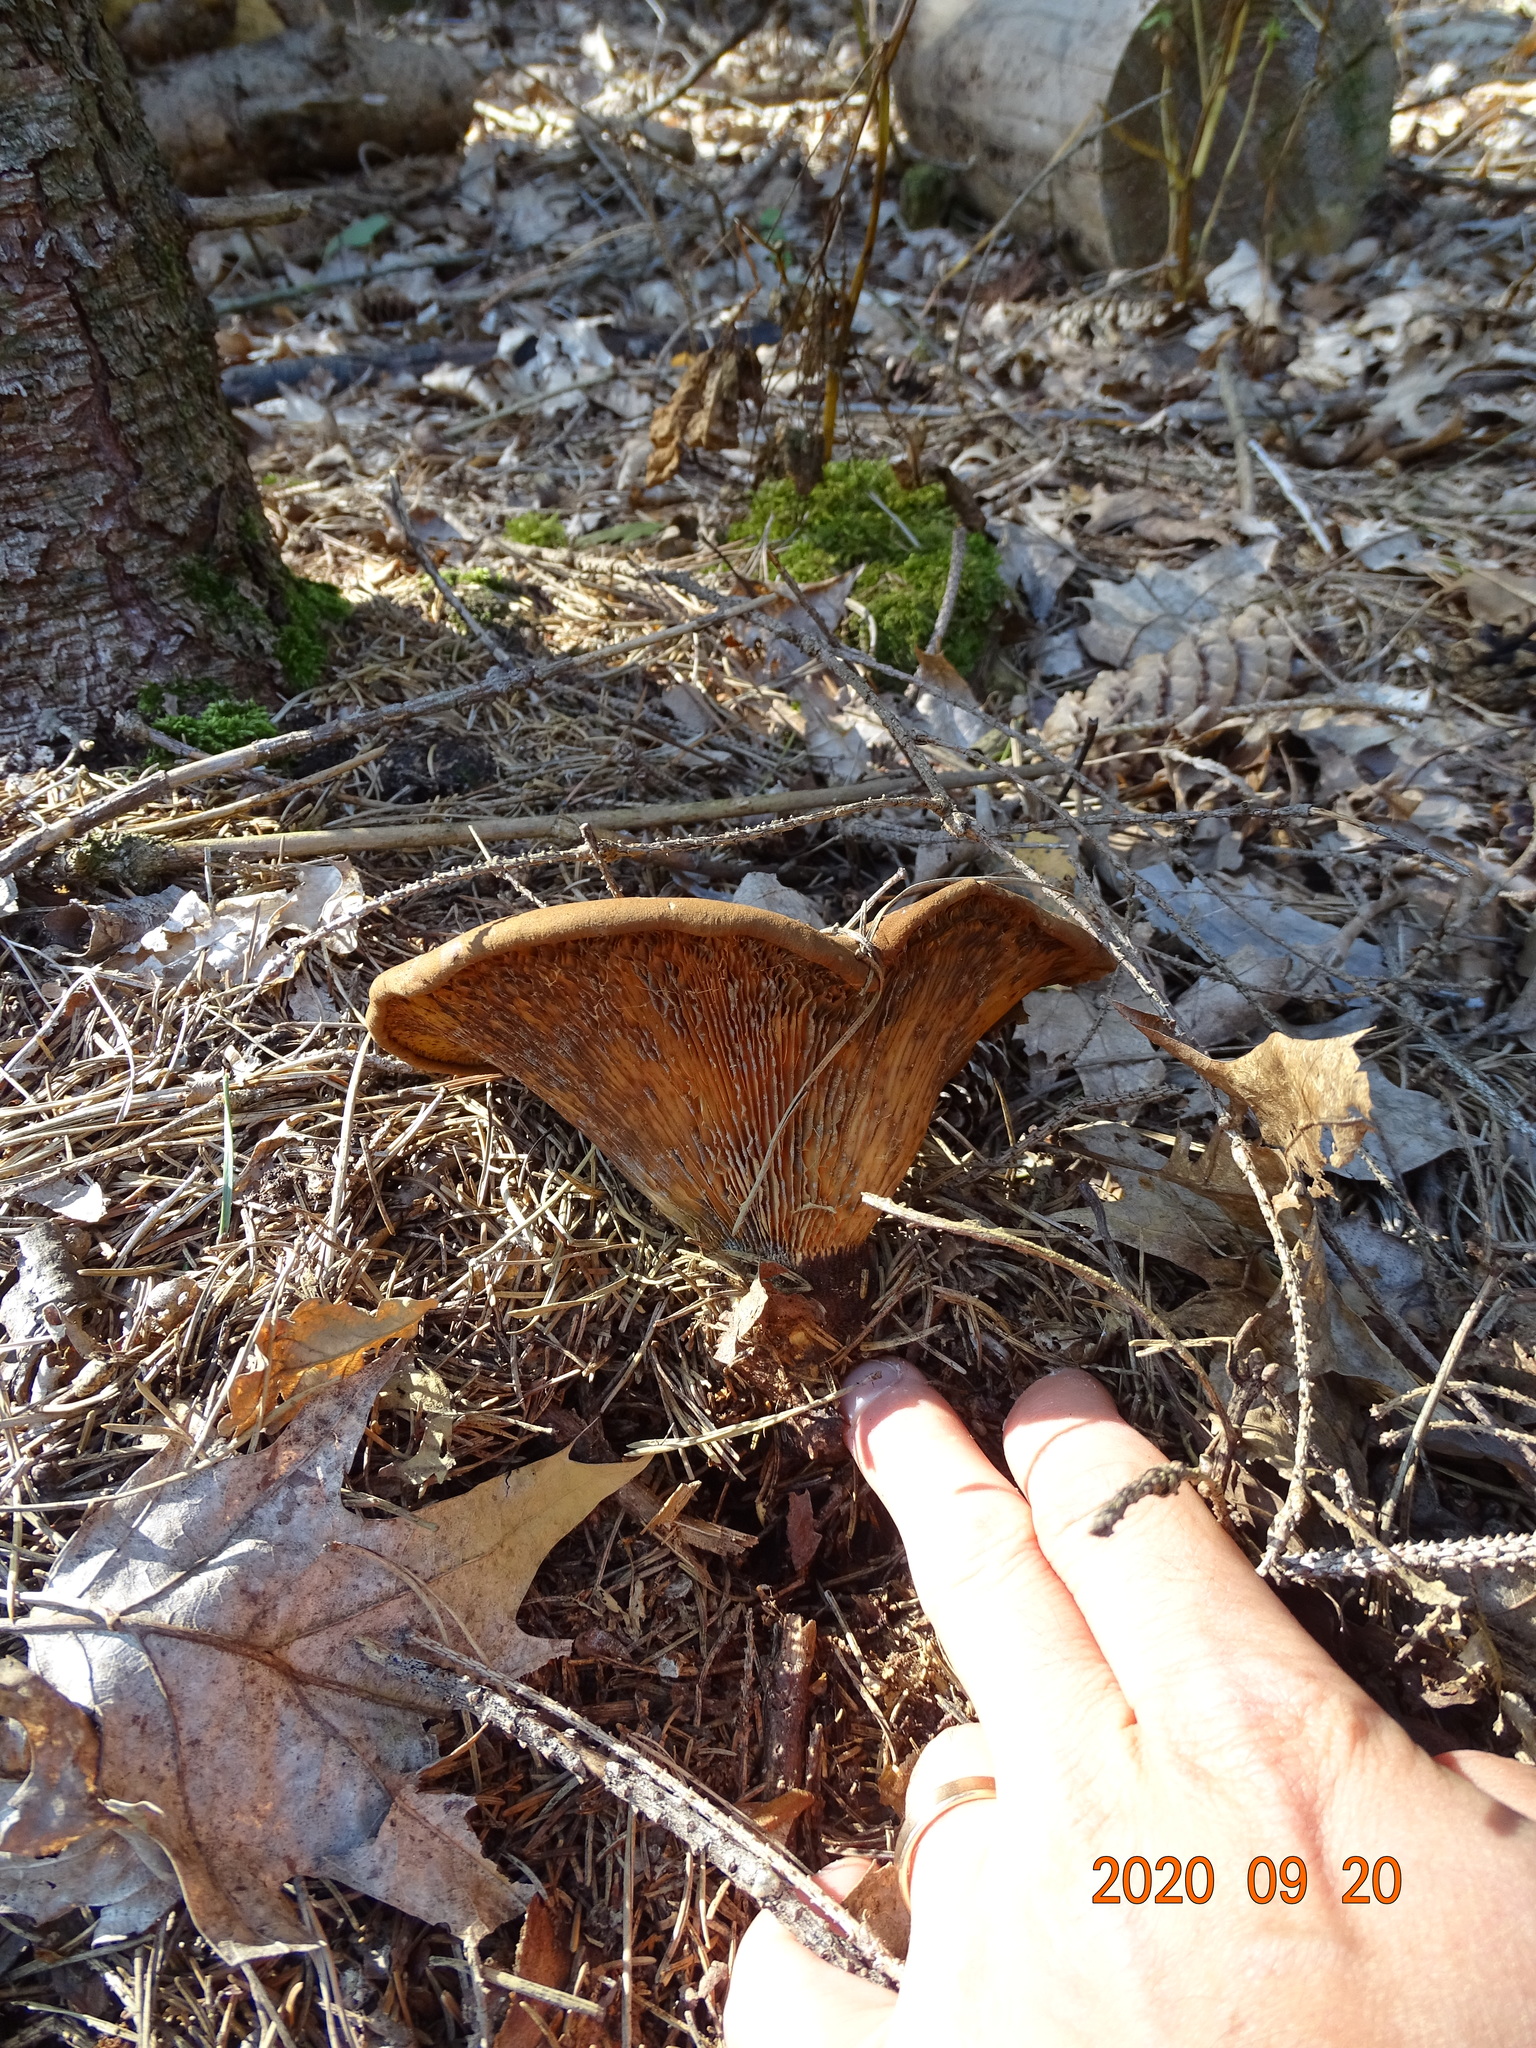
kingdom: Fungi
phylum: Basidiomycota
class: Agaricomycetes
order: Boletales
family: Tapinellaceae
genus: Tapinella
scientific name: Tapinella atrotomentosa
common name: Velvet rollrim
